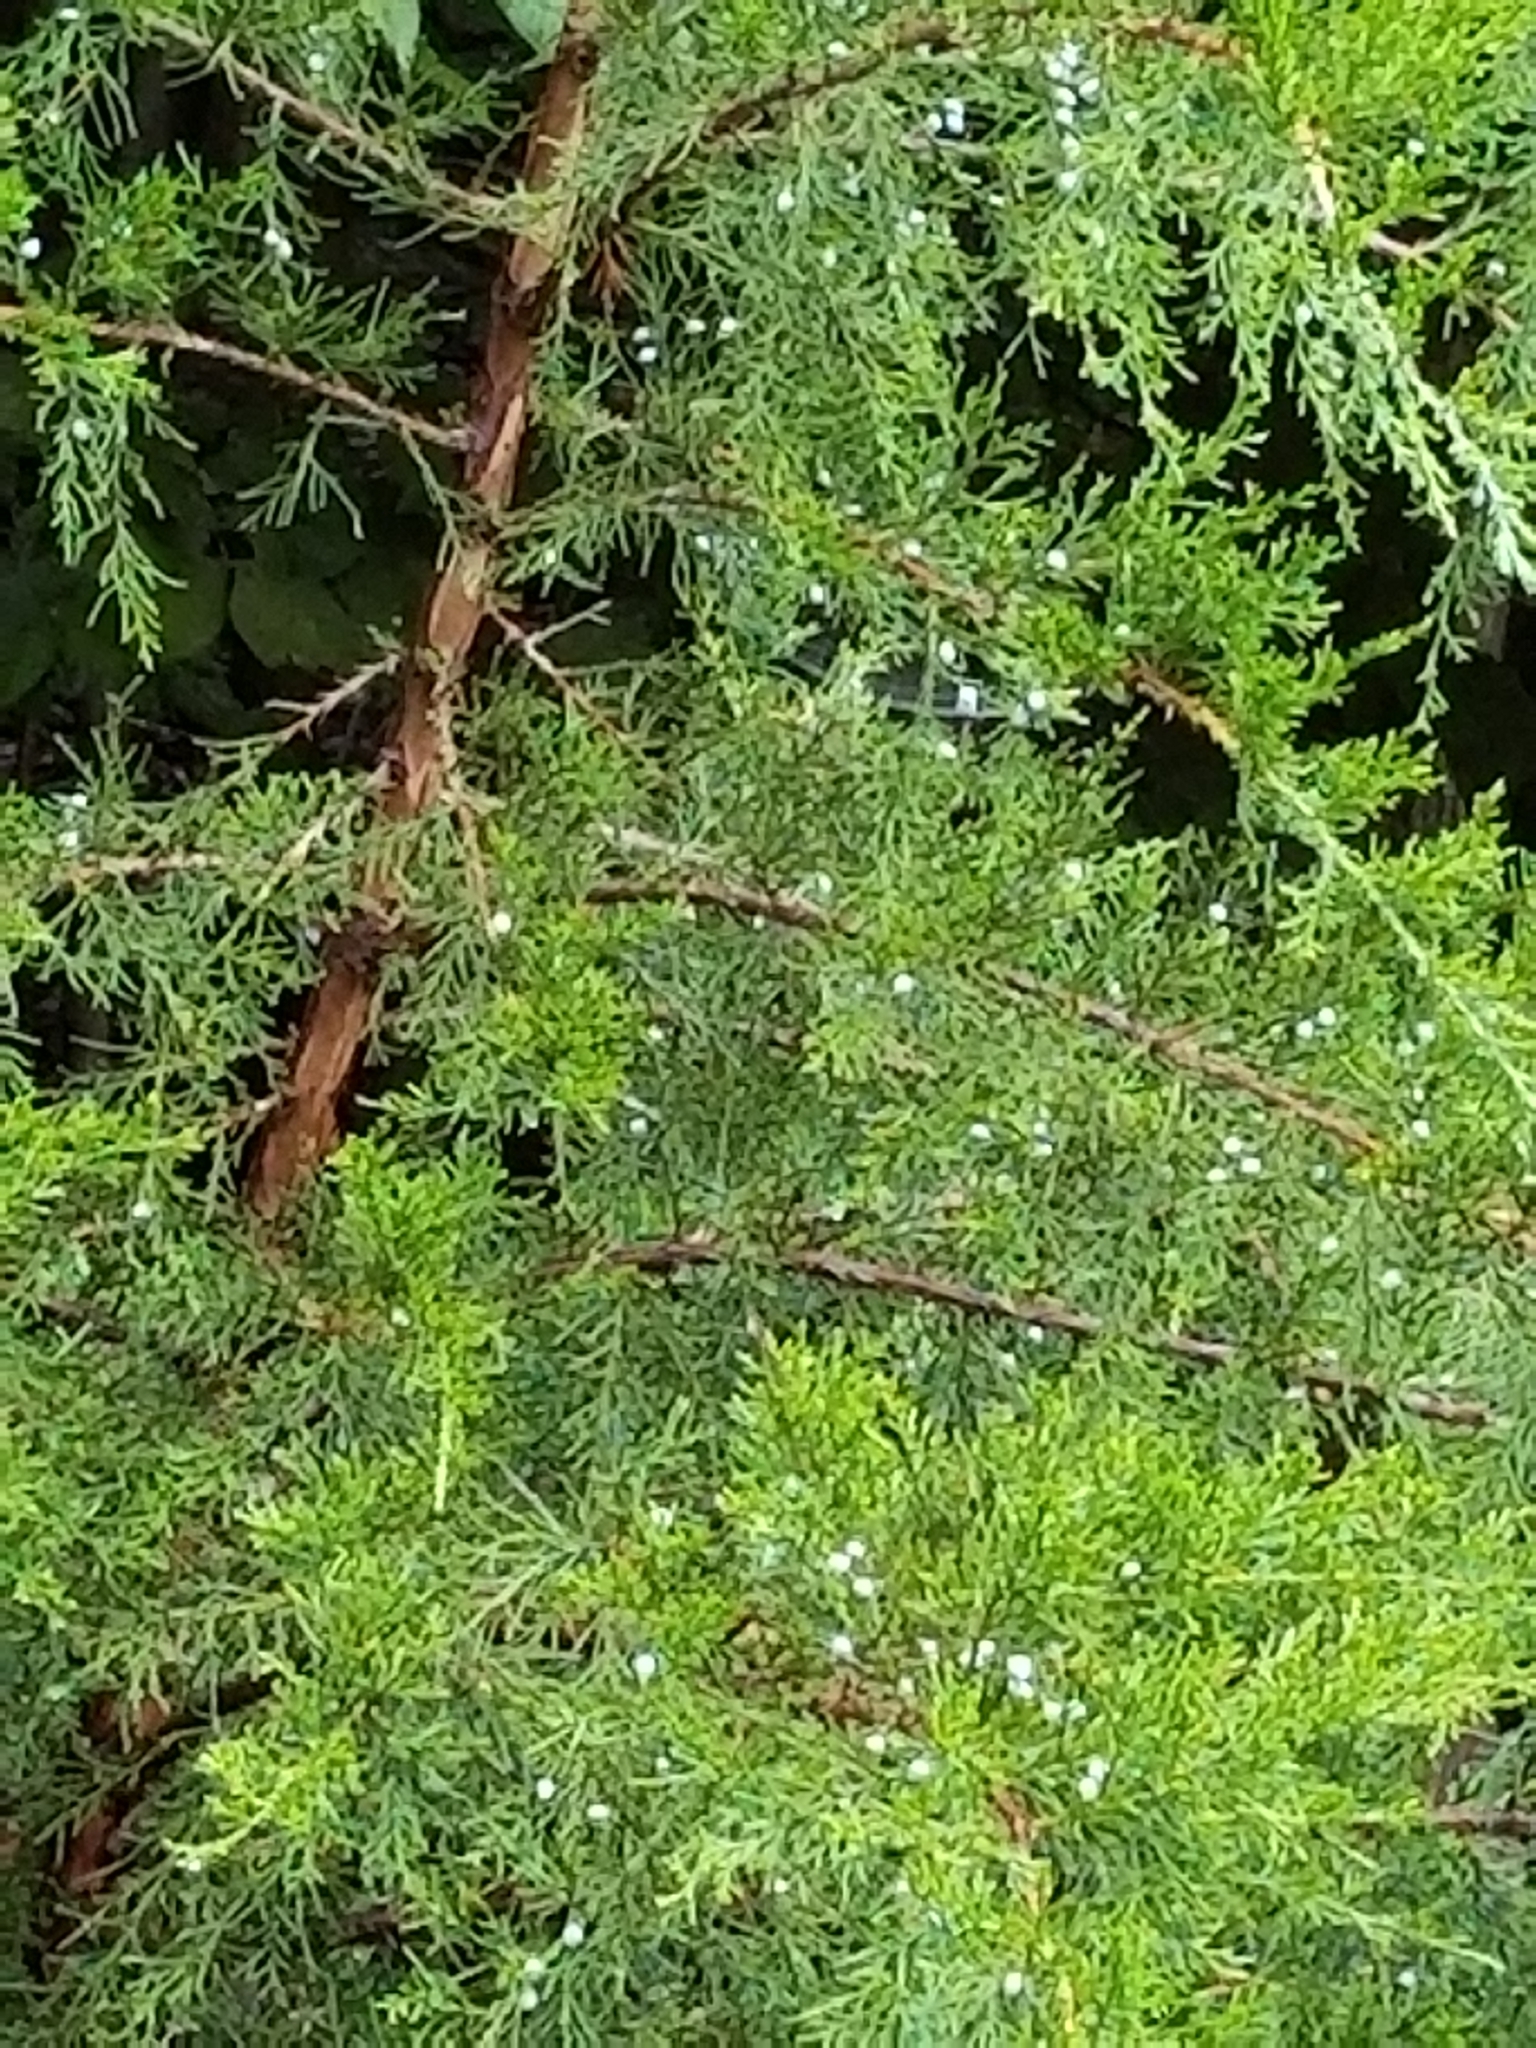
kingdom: Plantae
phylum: Tracheophyta
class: Pinopsida
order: Pinales
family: Cupressaceae
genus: Juniperus
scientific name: Juniperus virginiana
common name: Red juniper
